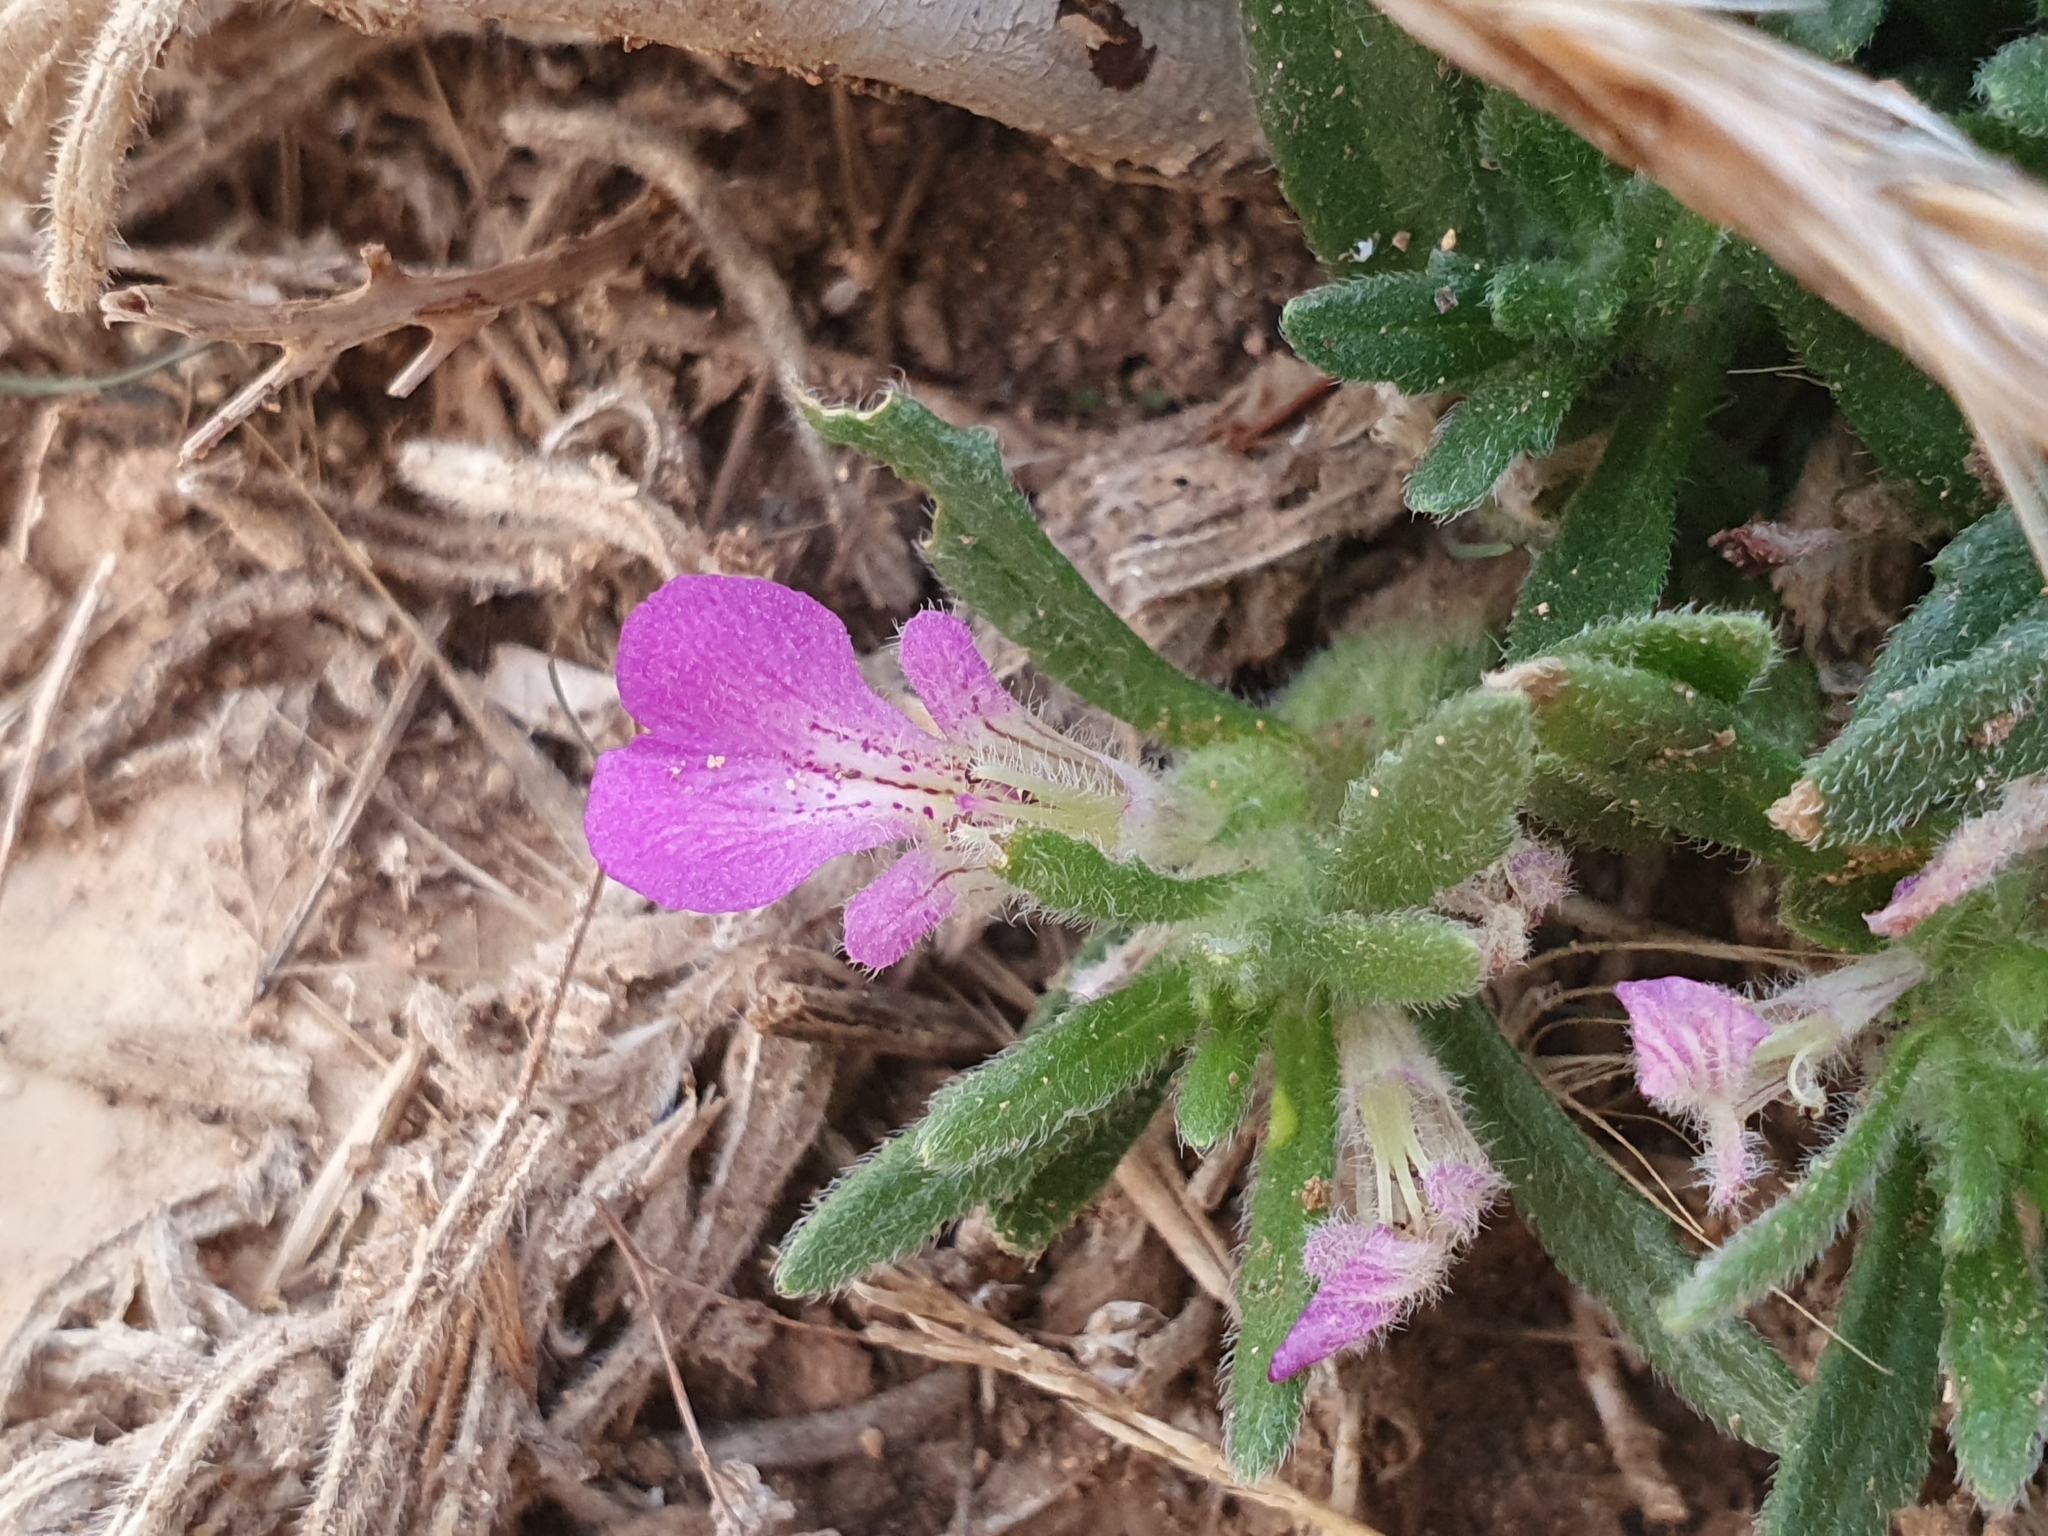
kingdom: Plantae
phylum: Tracheophyta
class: Magnoliopsida
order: Lamiales
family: Lamiaceae
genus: Ajuga
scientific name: Ajuga iva
